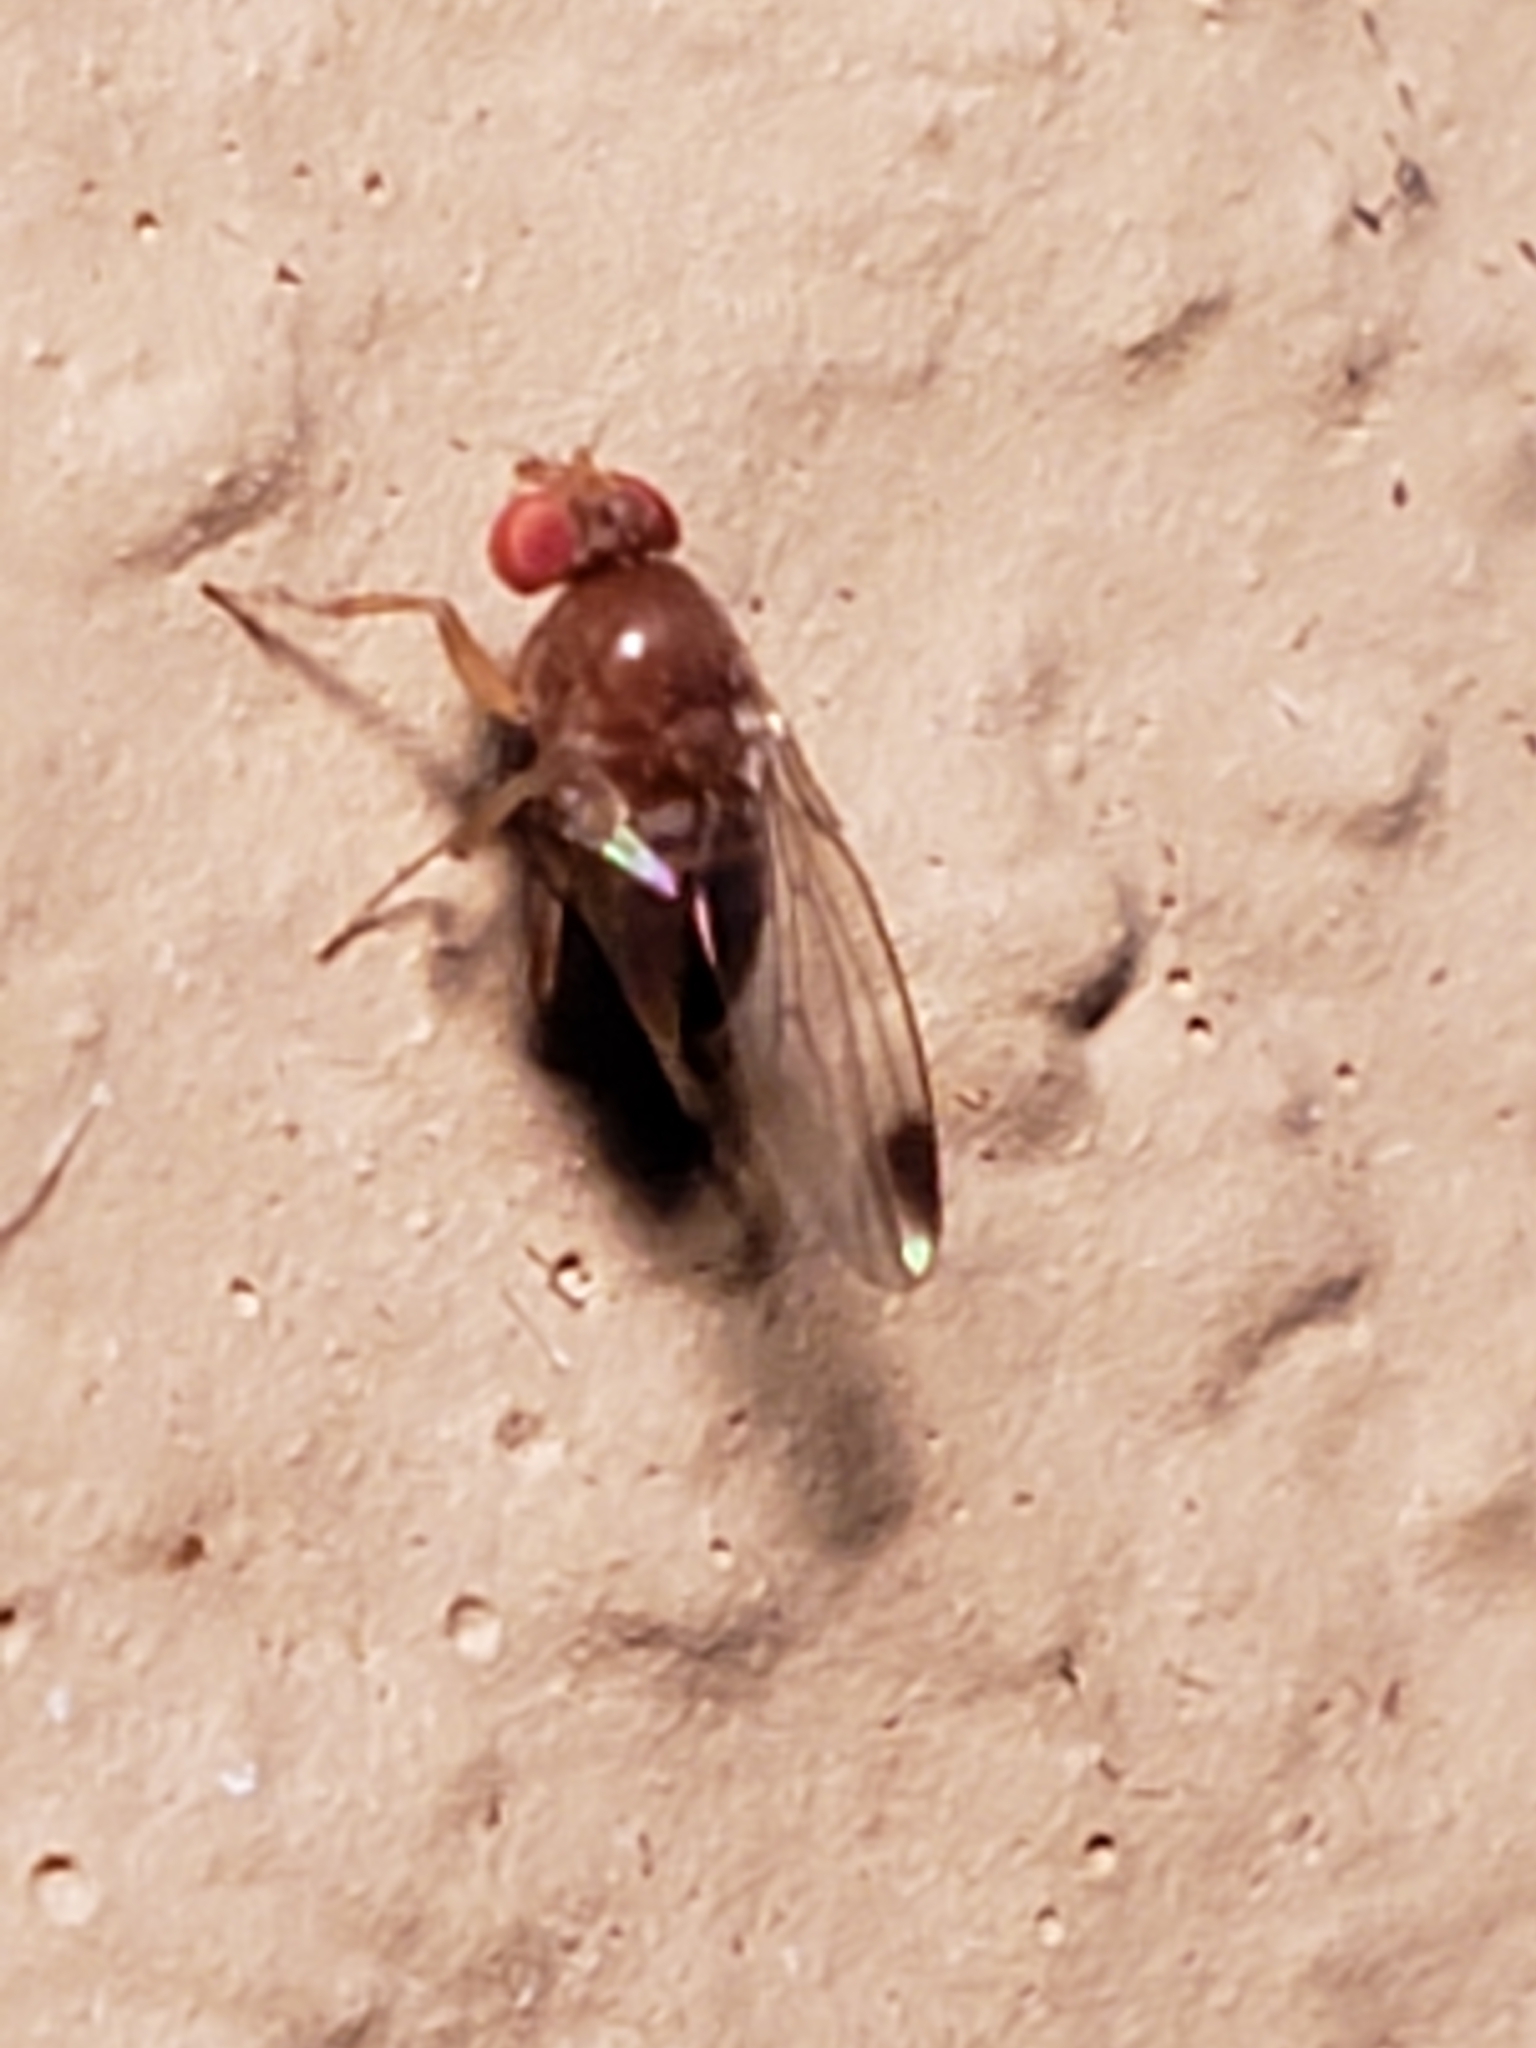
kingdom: Animalia
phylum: Arthropoda
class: Insecta
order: Diptera
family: Drosophilidae
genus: Drosophila
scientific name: Drosophila suzukii
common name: Spotted-wing drosophila
